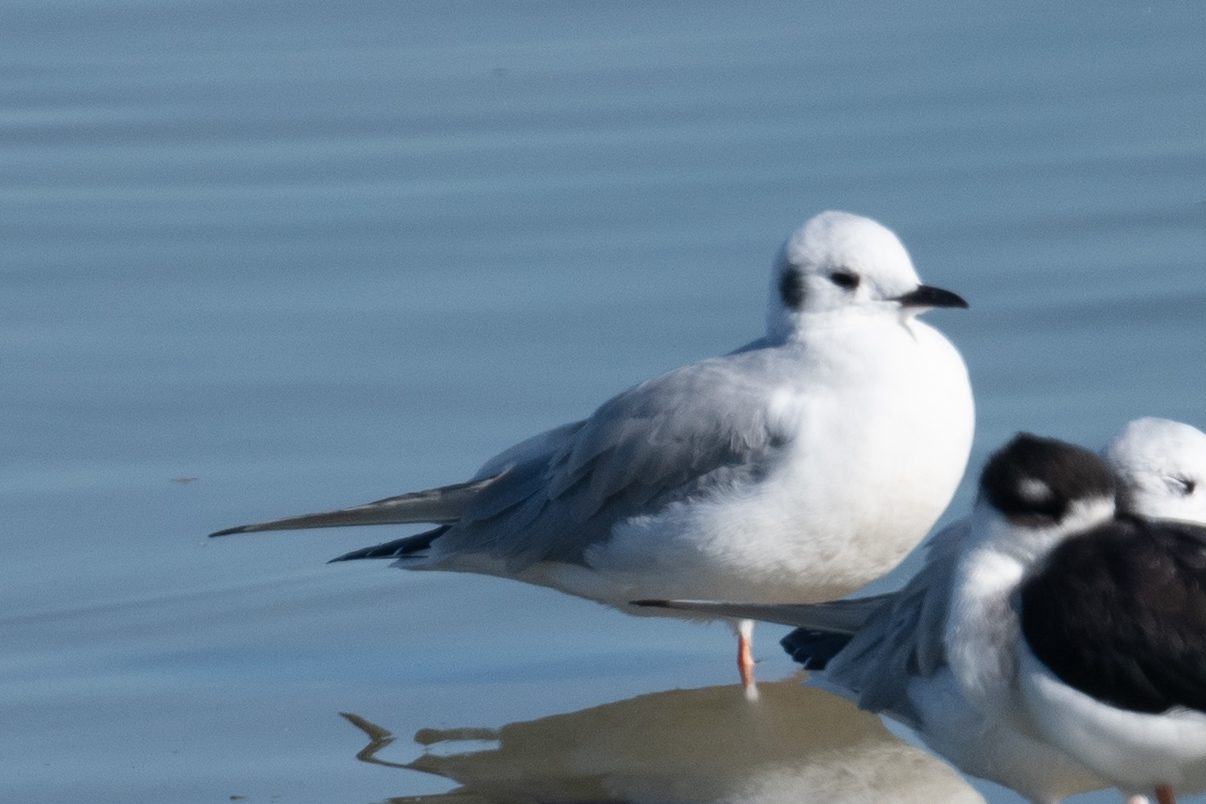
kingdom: Animalia
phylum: Chordata
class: Aves
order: Charadriiformes
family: Laridae
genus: Chroicocephalus
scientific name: Chroicocephalus philadelphia
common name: Bonaparte's gull
